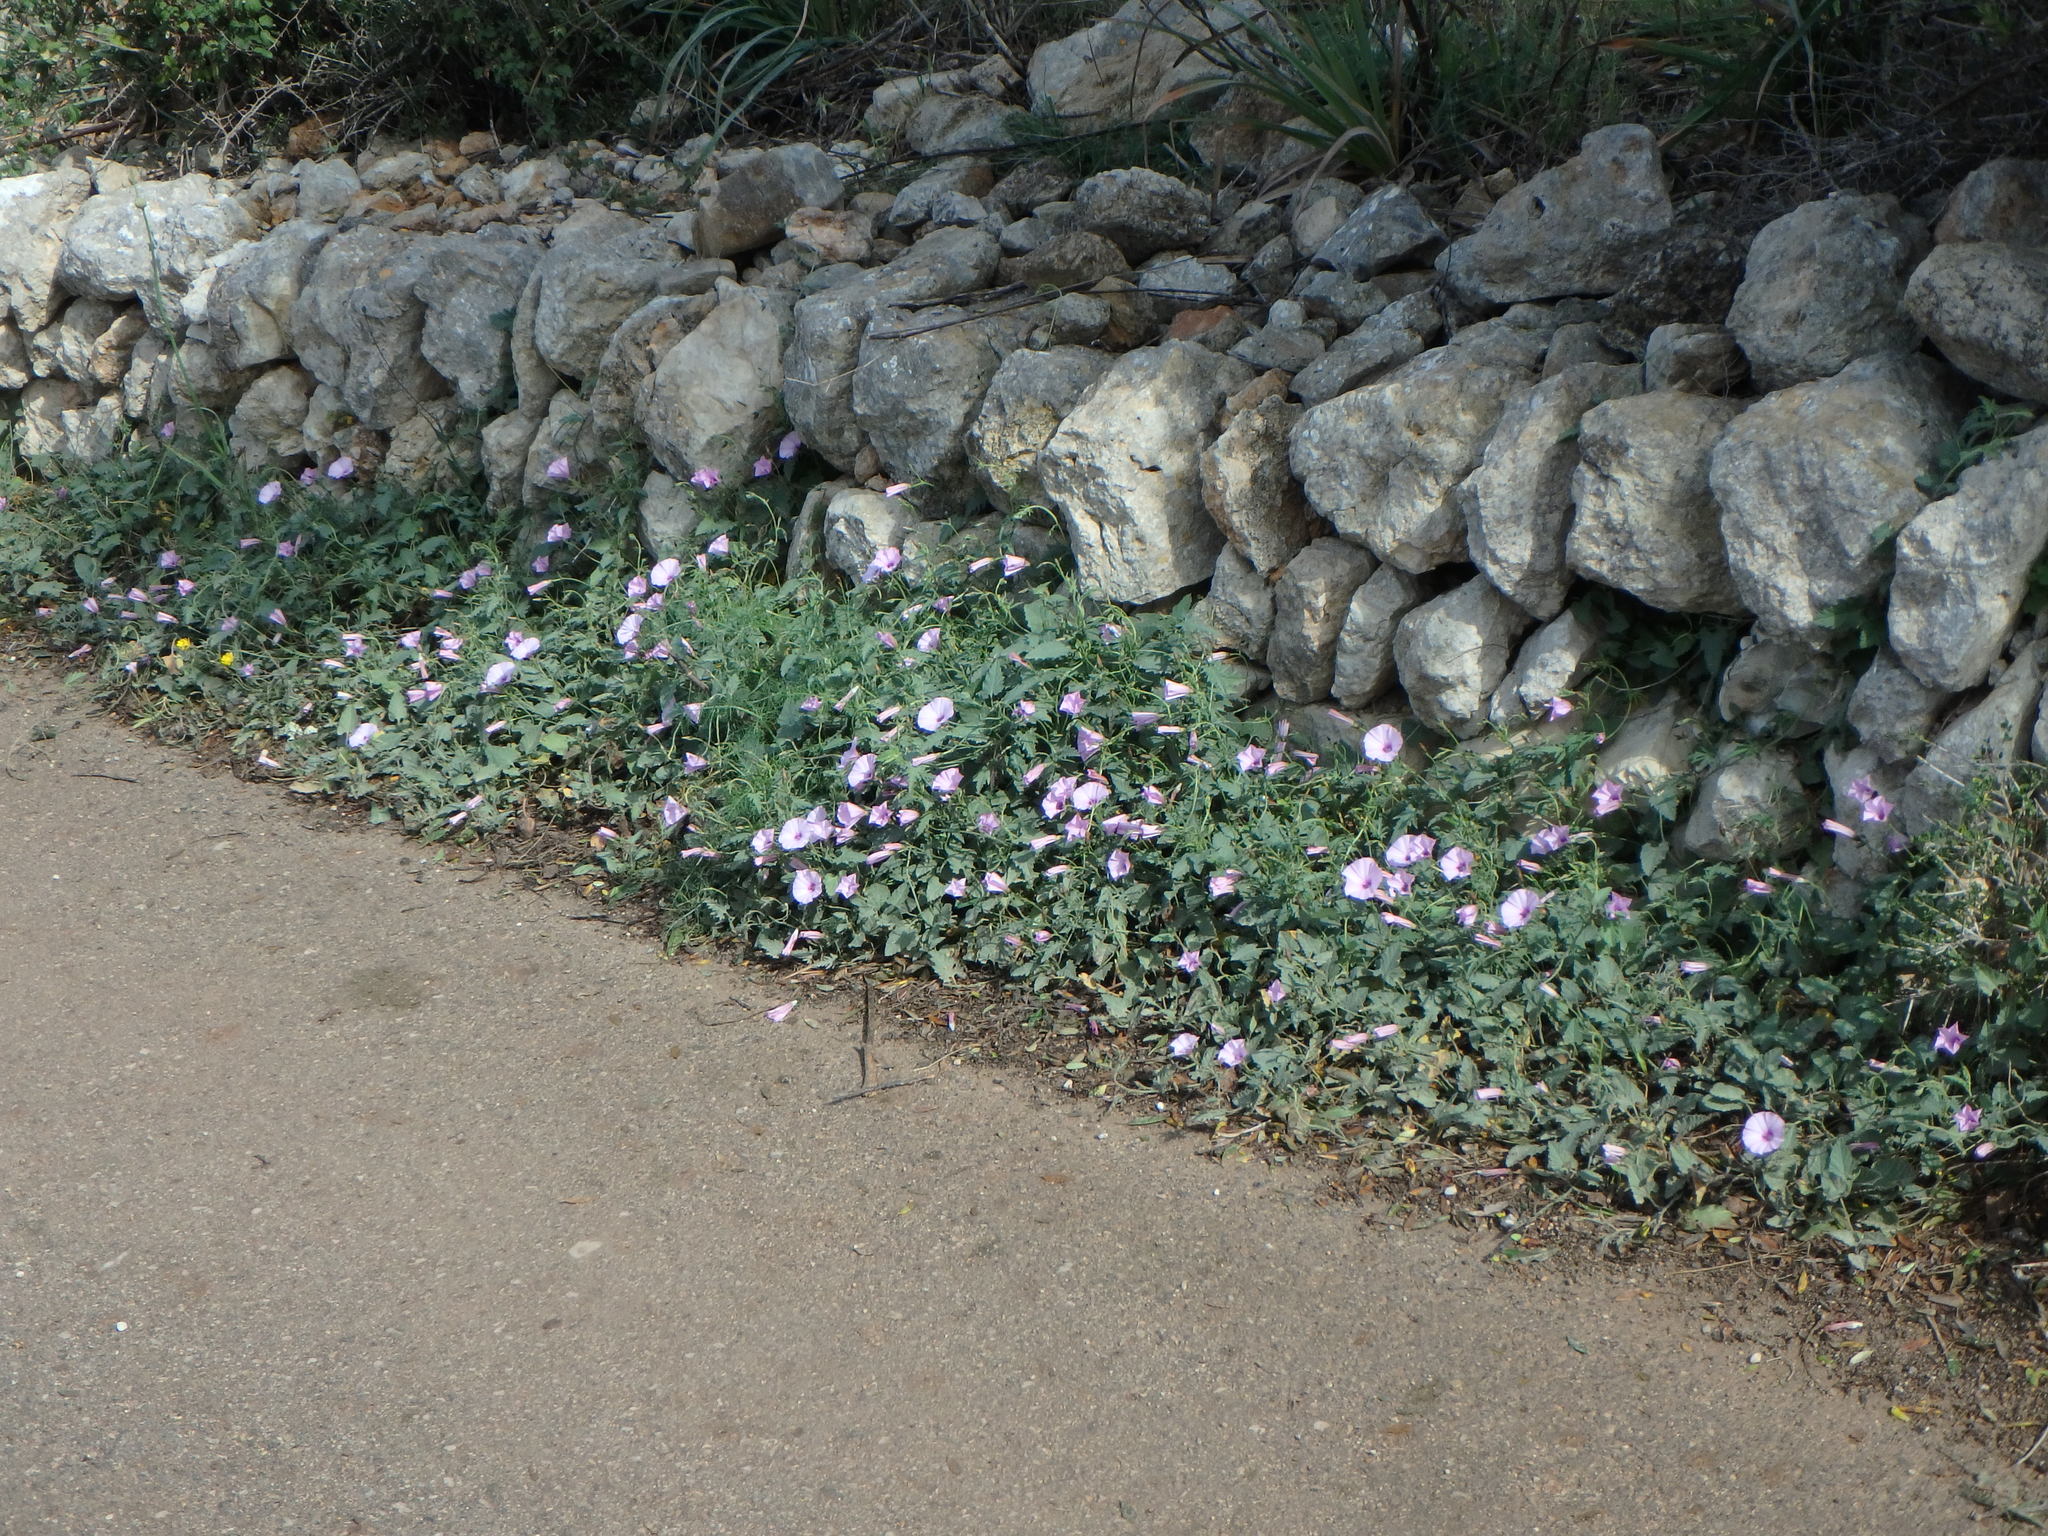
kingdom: Plantae
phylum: Tracheophyta
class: Magnoliopsida
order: Solanales
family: Convolvulaceae
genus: Convolvulus
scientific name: Convolvulus althaeoides
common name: Mallow bindweed
